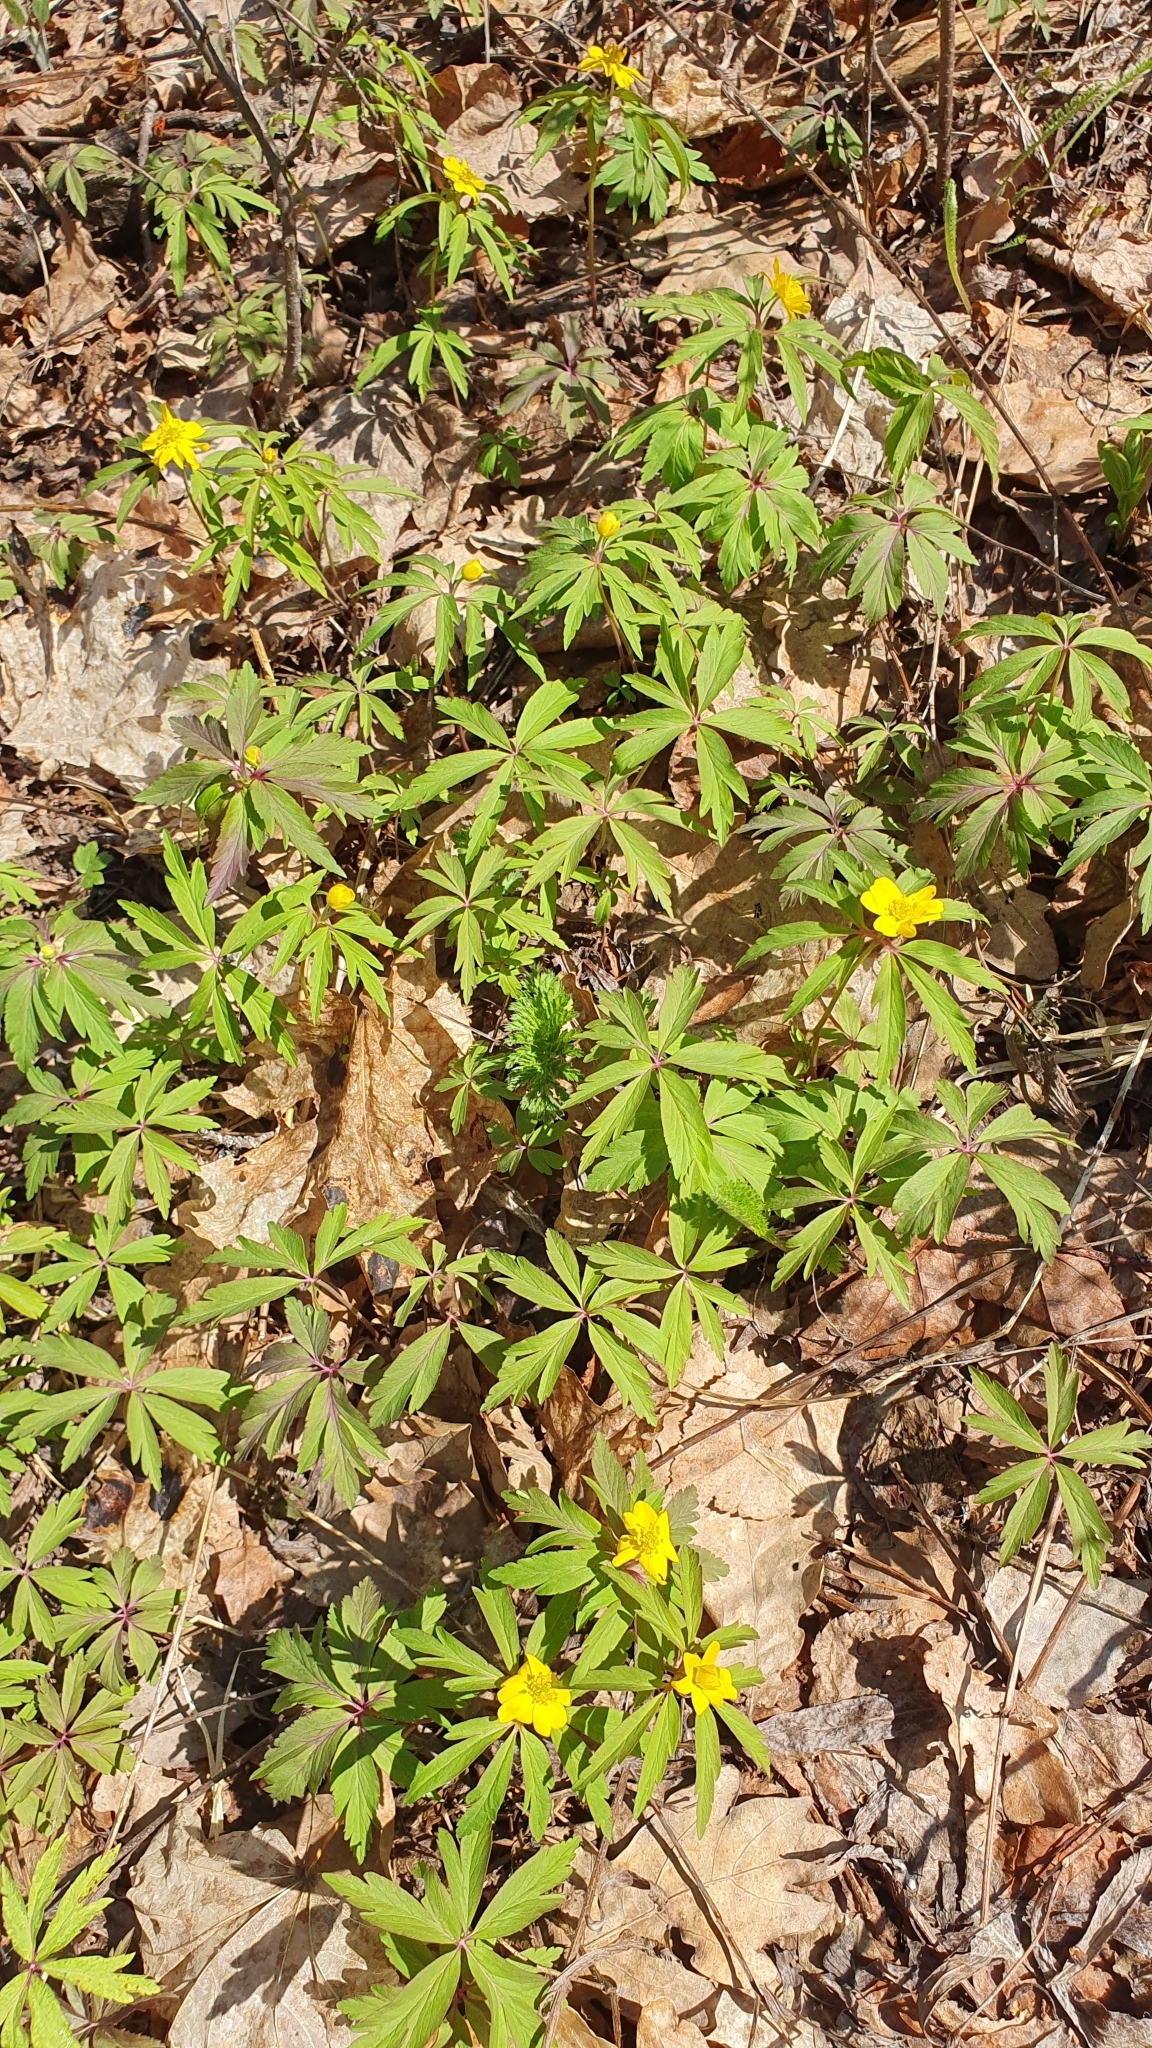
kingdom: Plantae
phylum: Tracheophyta
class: Magnoliopsida
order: Ranunculales
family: Ranunculaceae
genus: Anemone
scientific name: Anemone ranunculoides
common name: Yellow anemone
